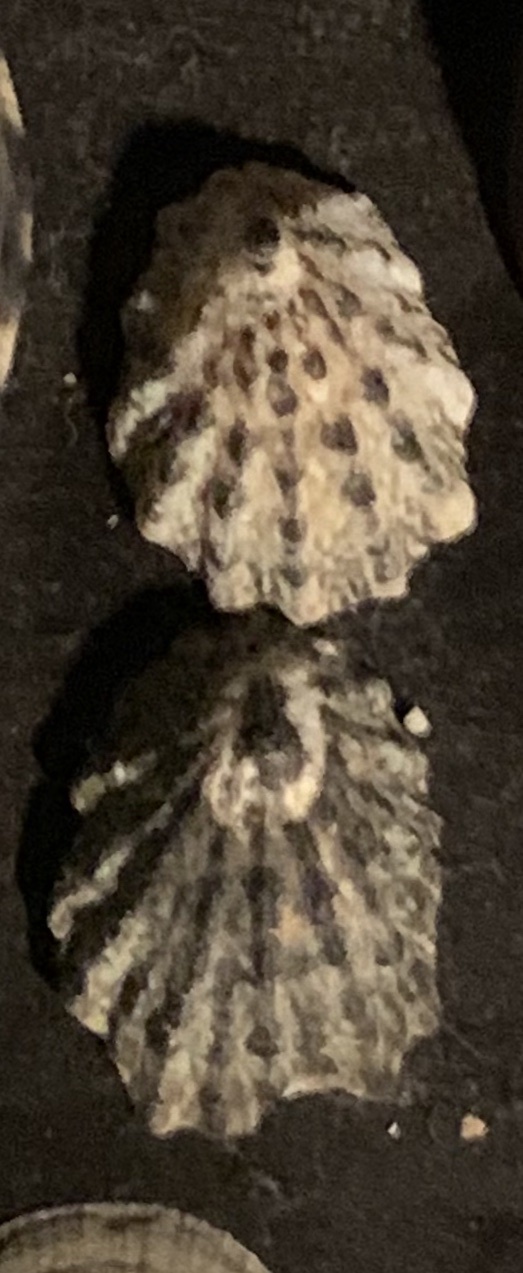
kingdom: Animalia
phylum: Mollusca
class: Gastropoda
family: Lottiidae
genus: Lottia
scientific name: Lottia scabra
